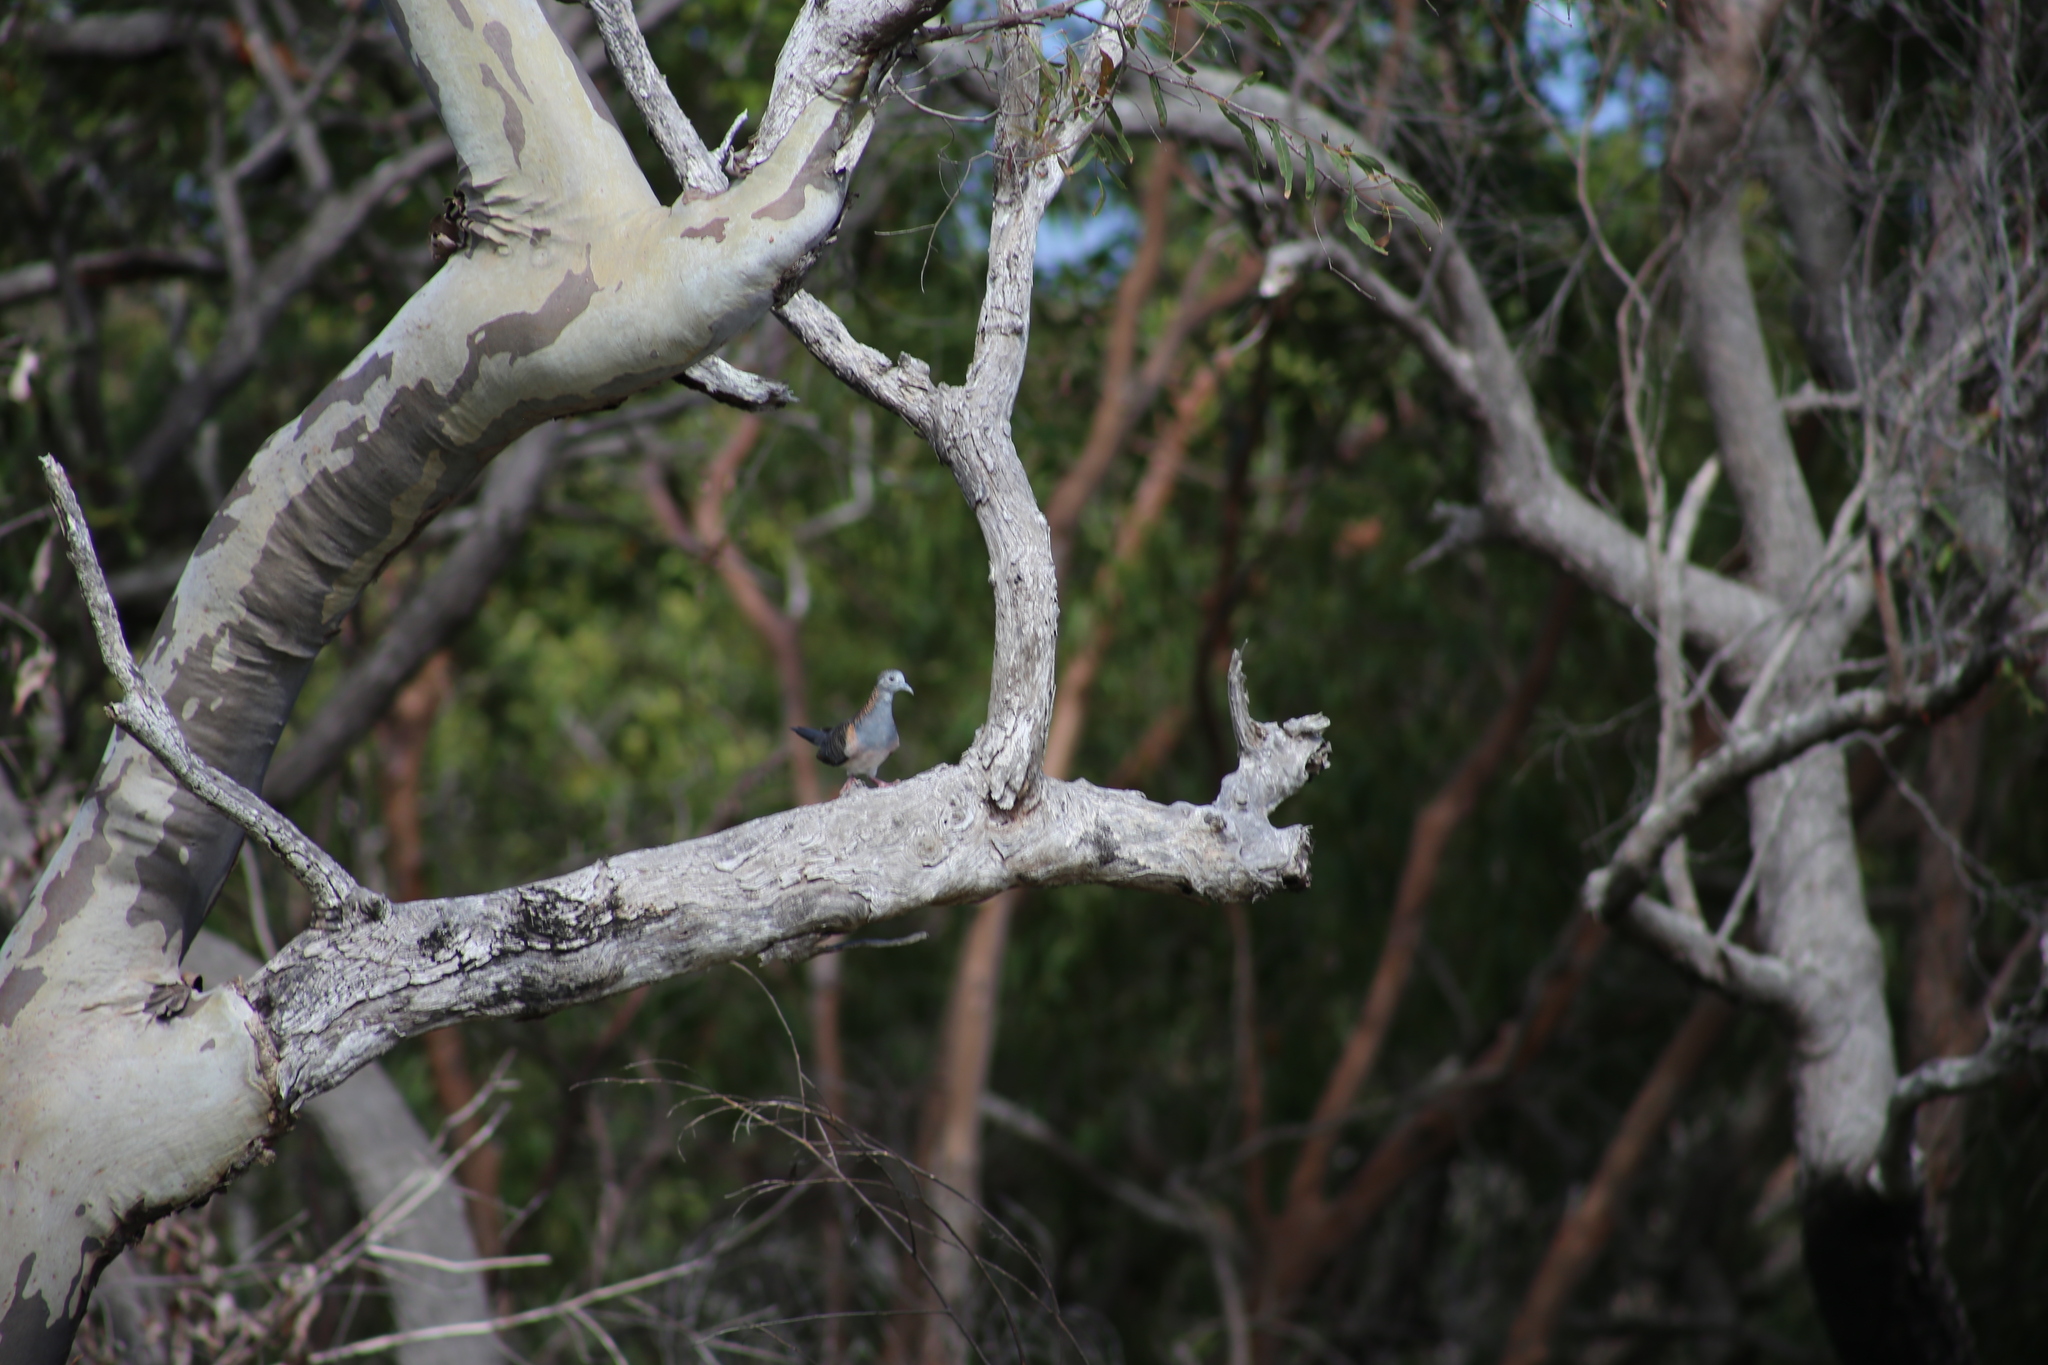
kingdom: Animalia
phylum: Chordata
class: Aves
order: Columbiformes
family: Columbidae
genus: Geopelia
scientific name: Geopelia humeralis
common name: Bar-shouldered dove
